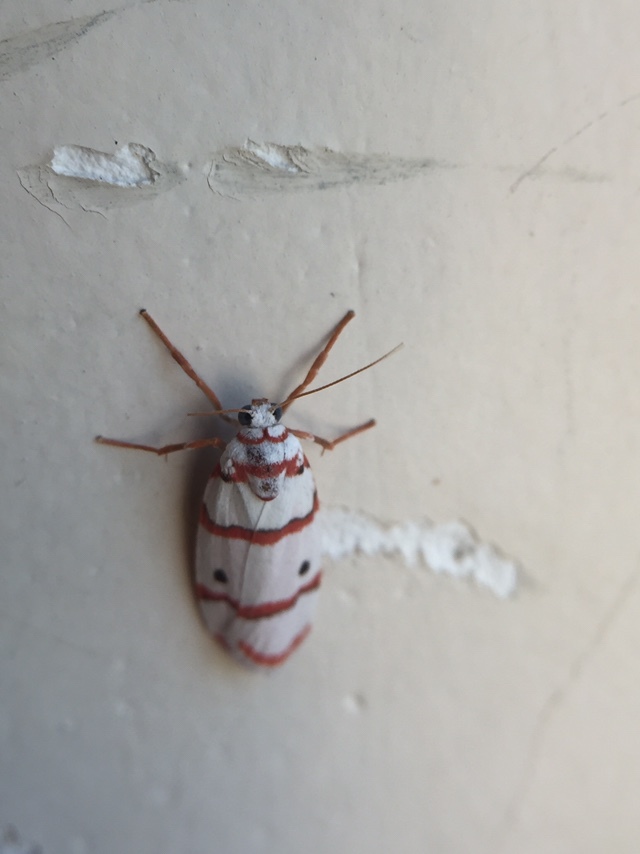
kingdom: Animalia
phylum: Arthropoda
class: Insecta
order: Lepidoptera
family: Erebidae
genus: Cyana
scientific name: Cyana peregrina
